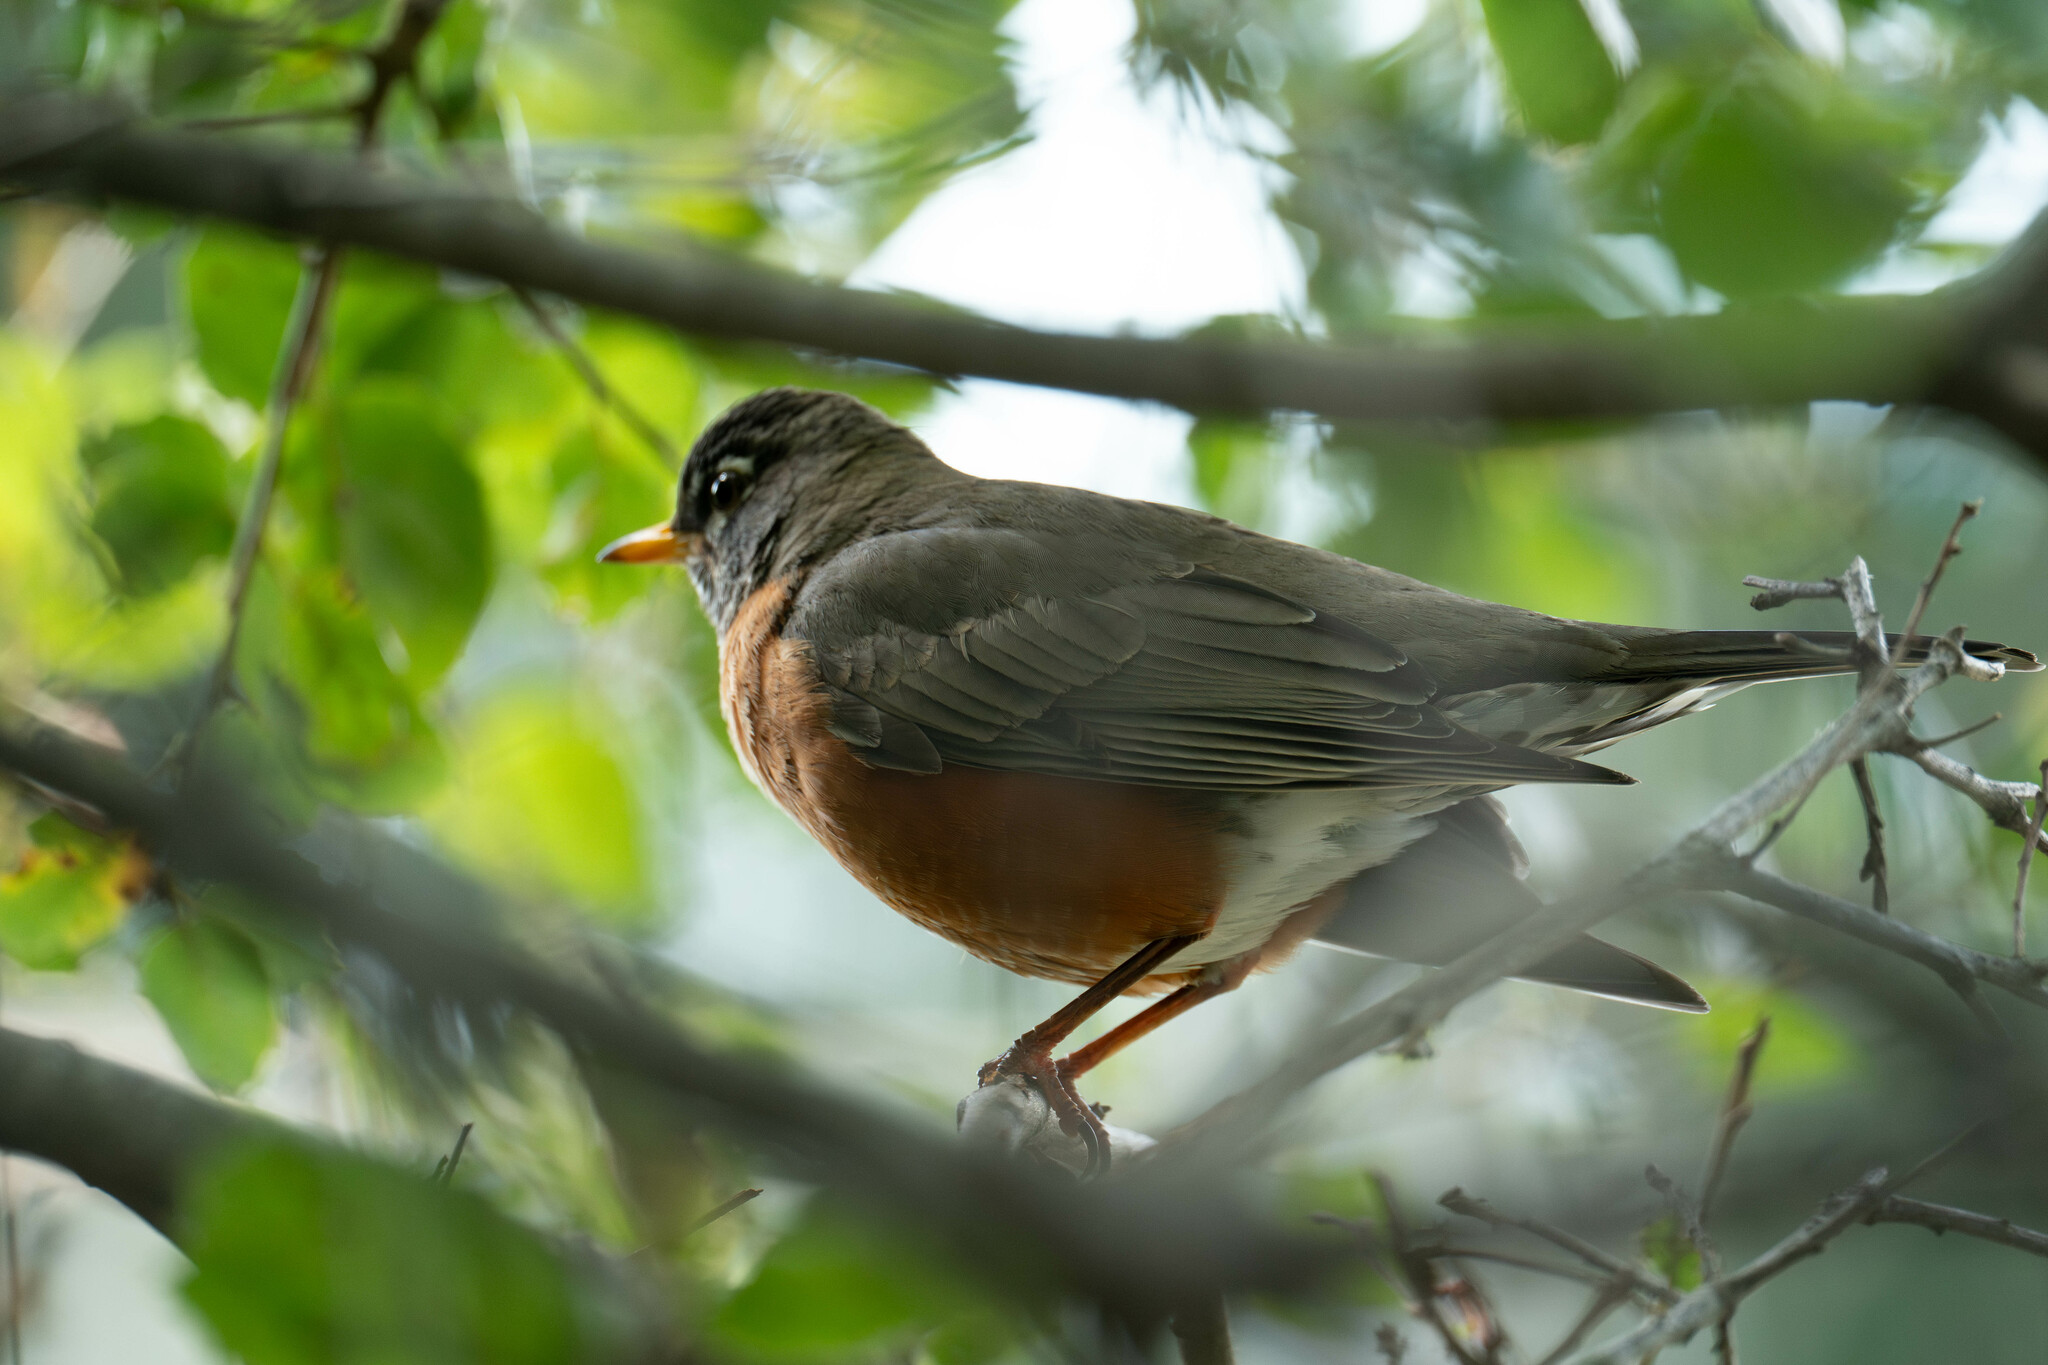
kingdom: Animalia
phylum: Chordata
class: Aves
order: Passeriformes
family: Turdidae
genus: Turdus
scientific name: Turdus migratorius
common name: American robin
